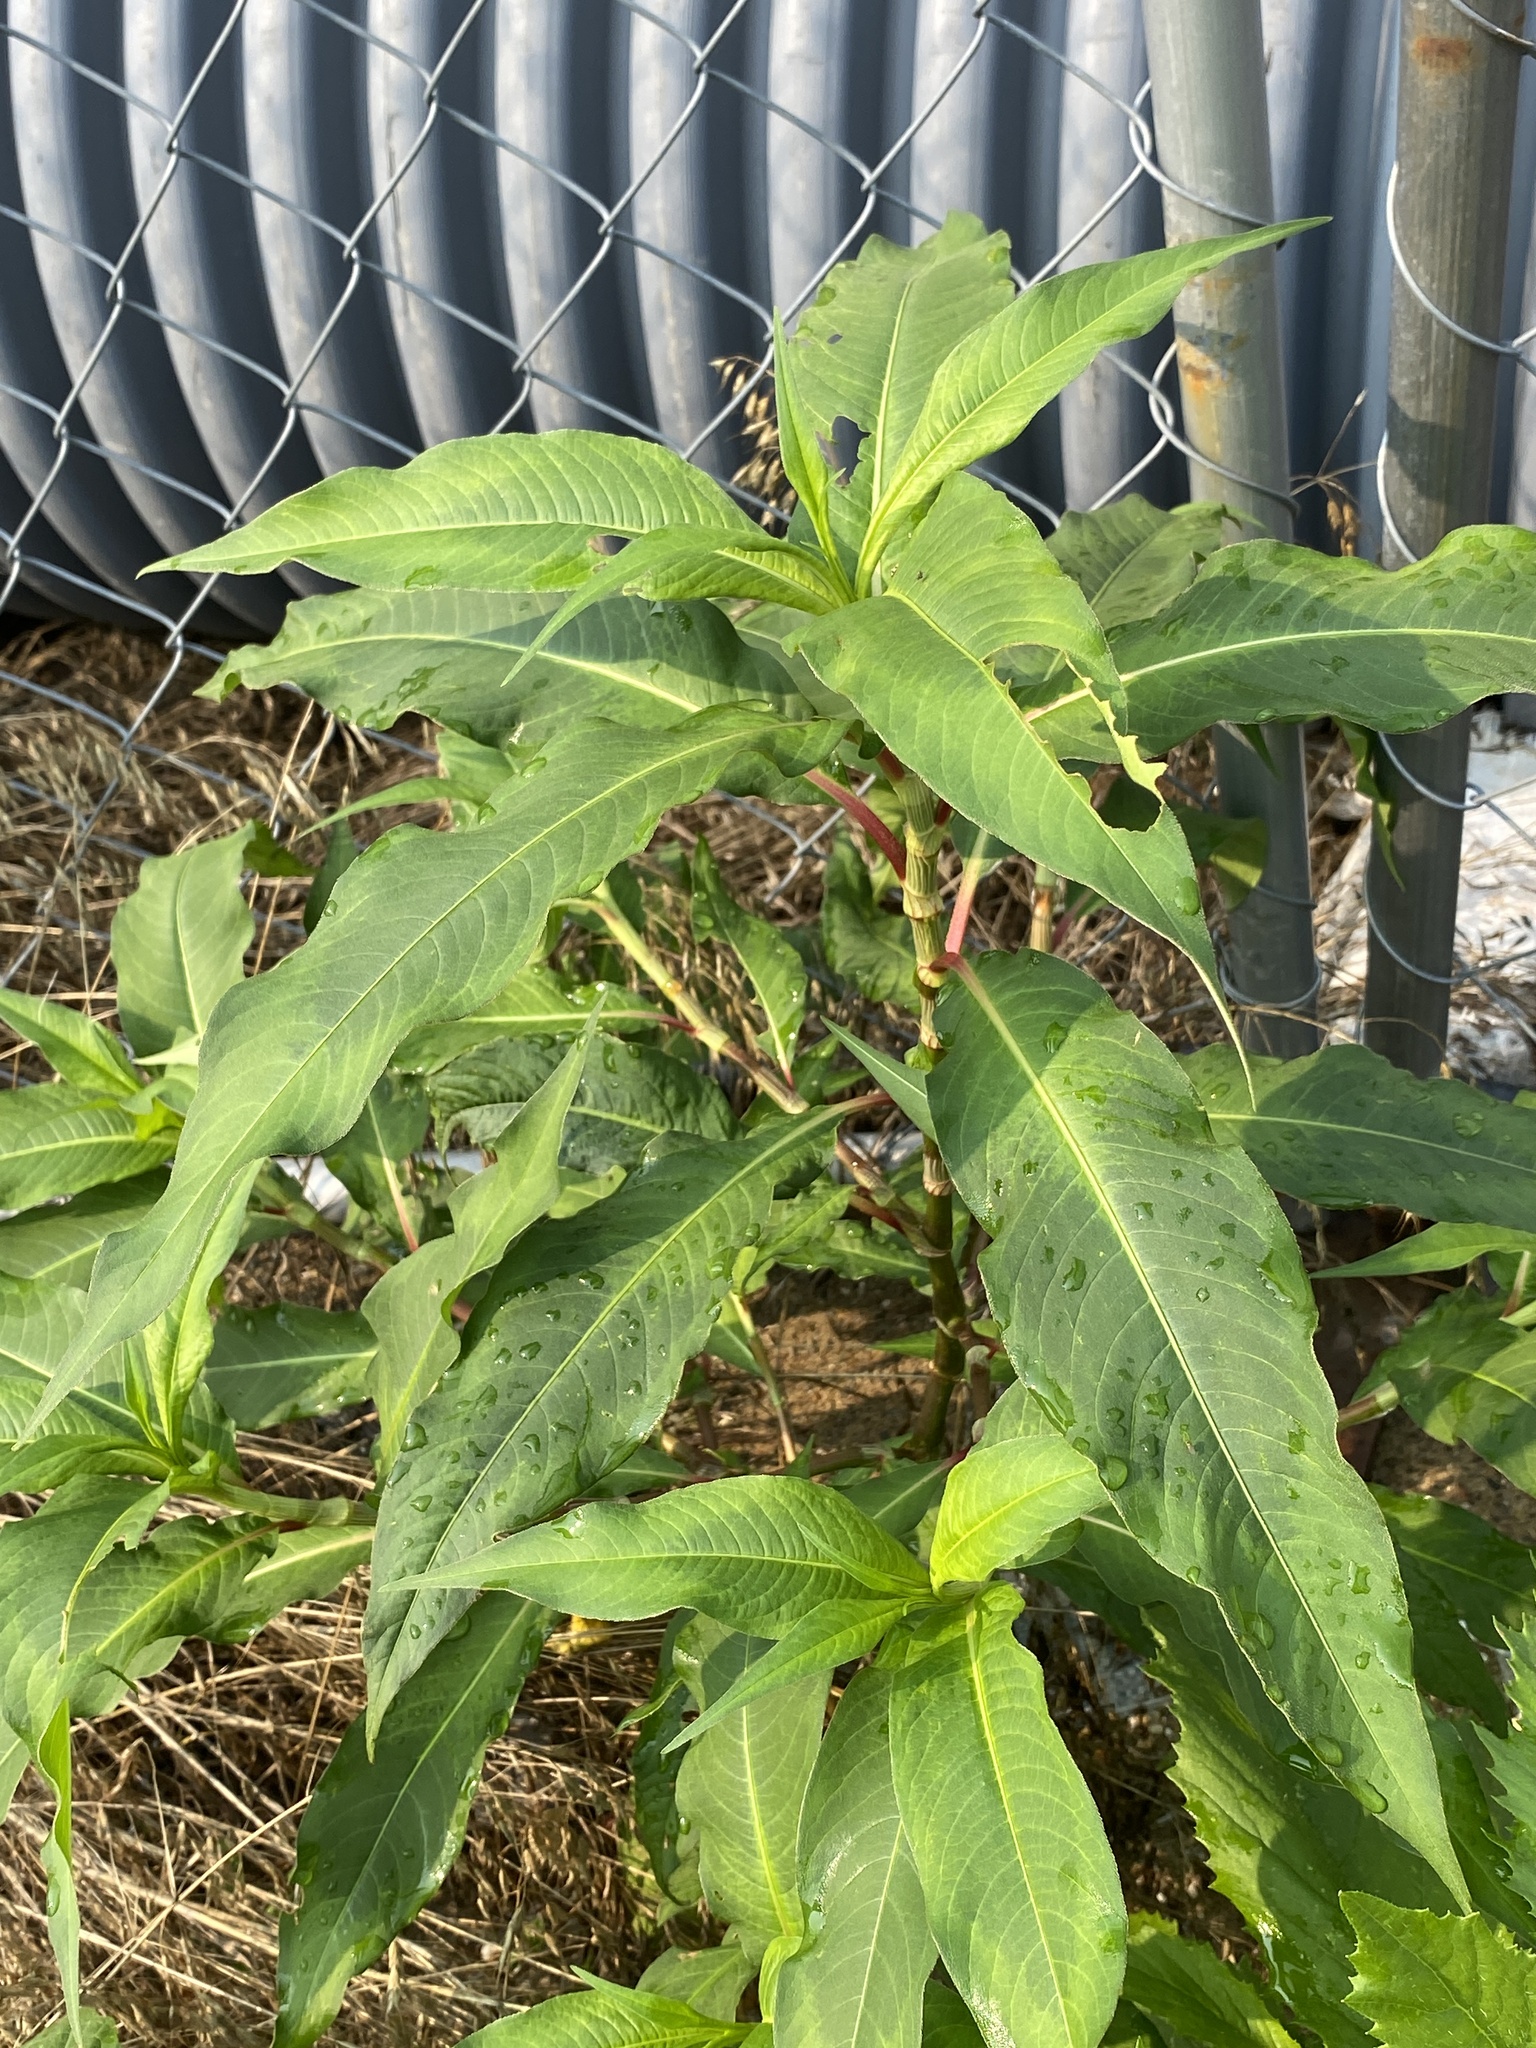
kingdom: Plantae
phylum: Tracheophyta
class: Magnoliopsida
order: Caryophyllales
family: Polygonaceae
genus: Persicaria
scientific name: Persicaria extremiorientalis
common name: Far-eastern smartweed
